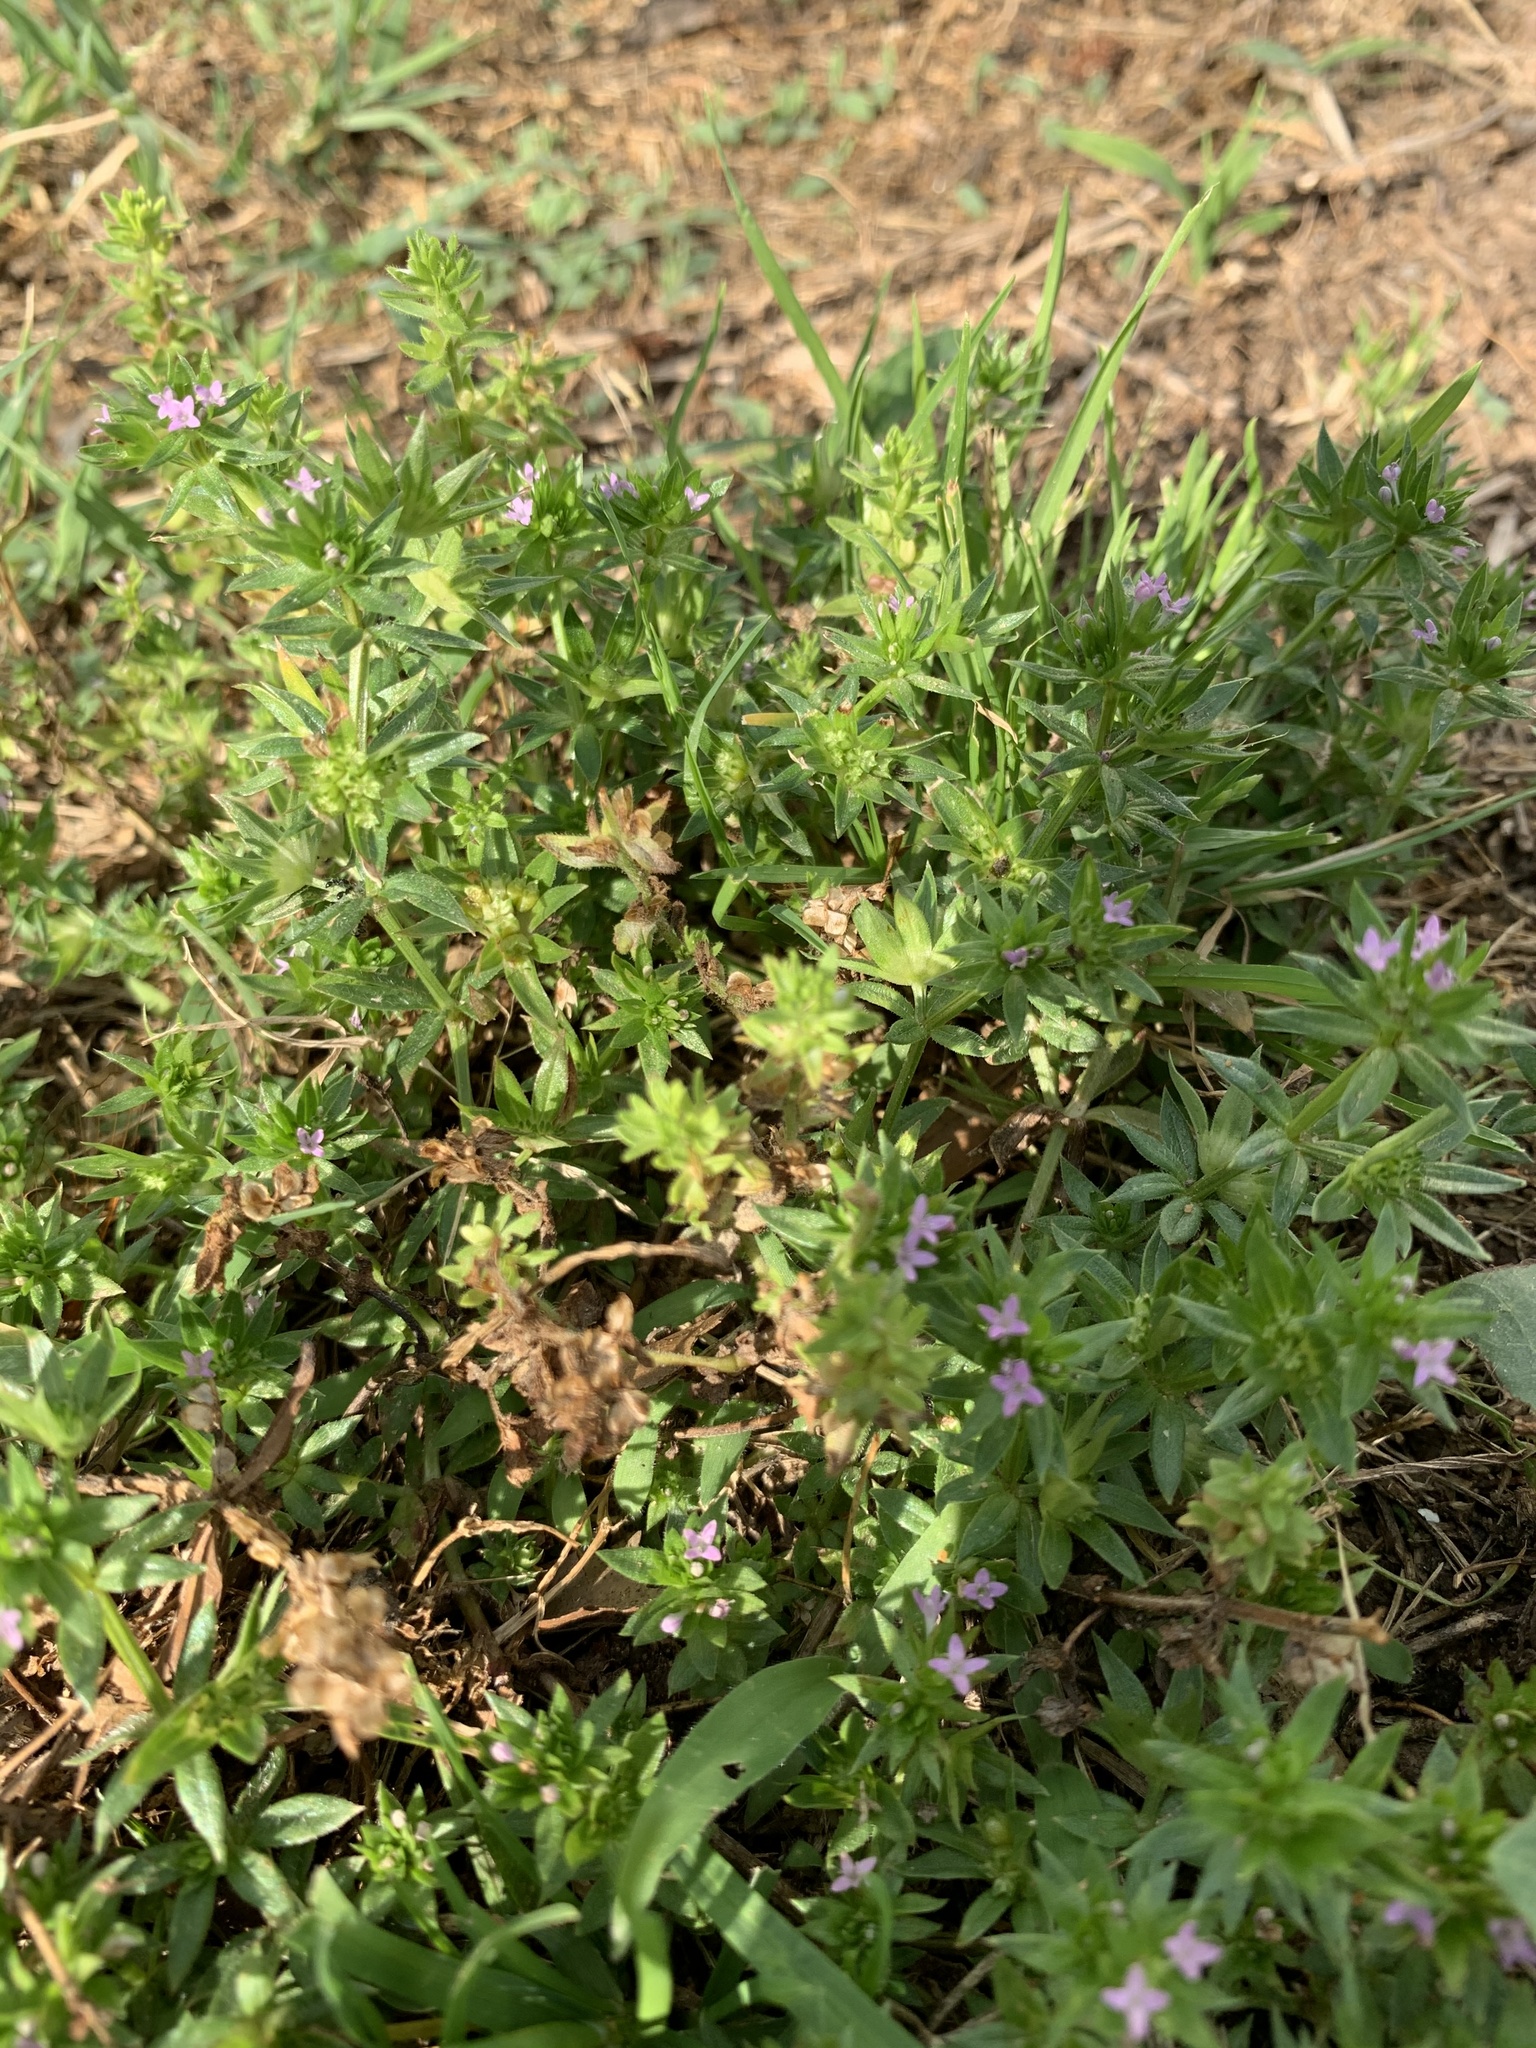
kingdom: Plantae
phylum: Tracheophyta
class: Magnoliopsida
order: Gentianales
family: Rubiaceae
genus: Sherardia
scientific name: Sherardia arvensis
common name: Field madder
